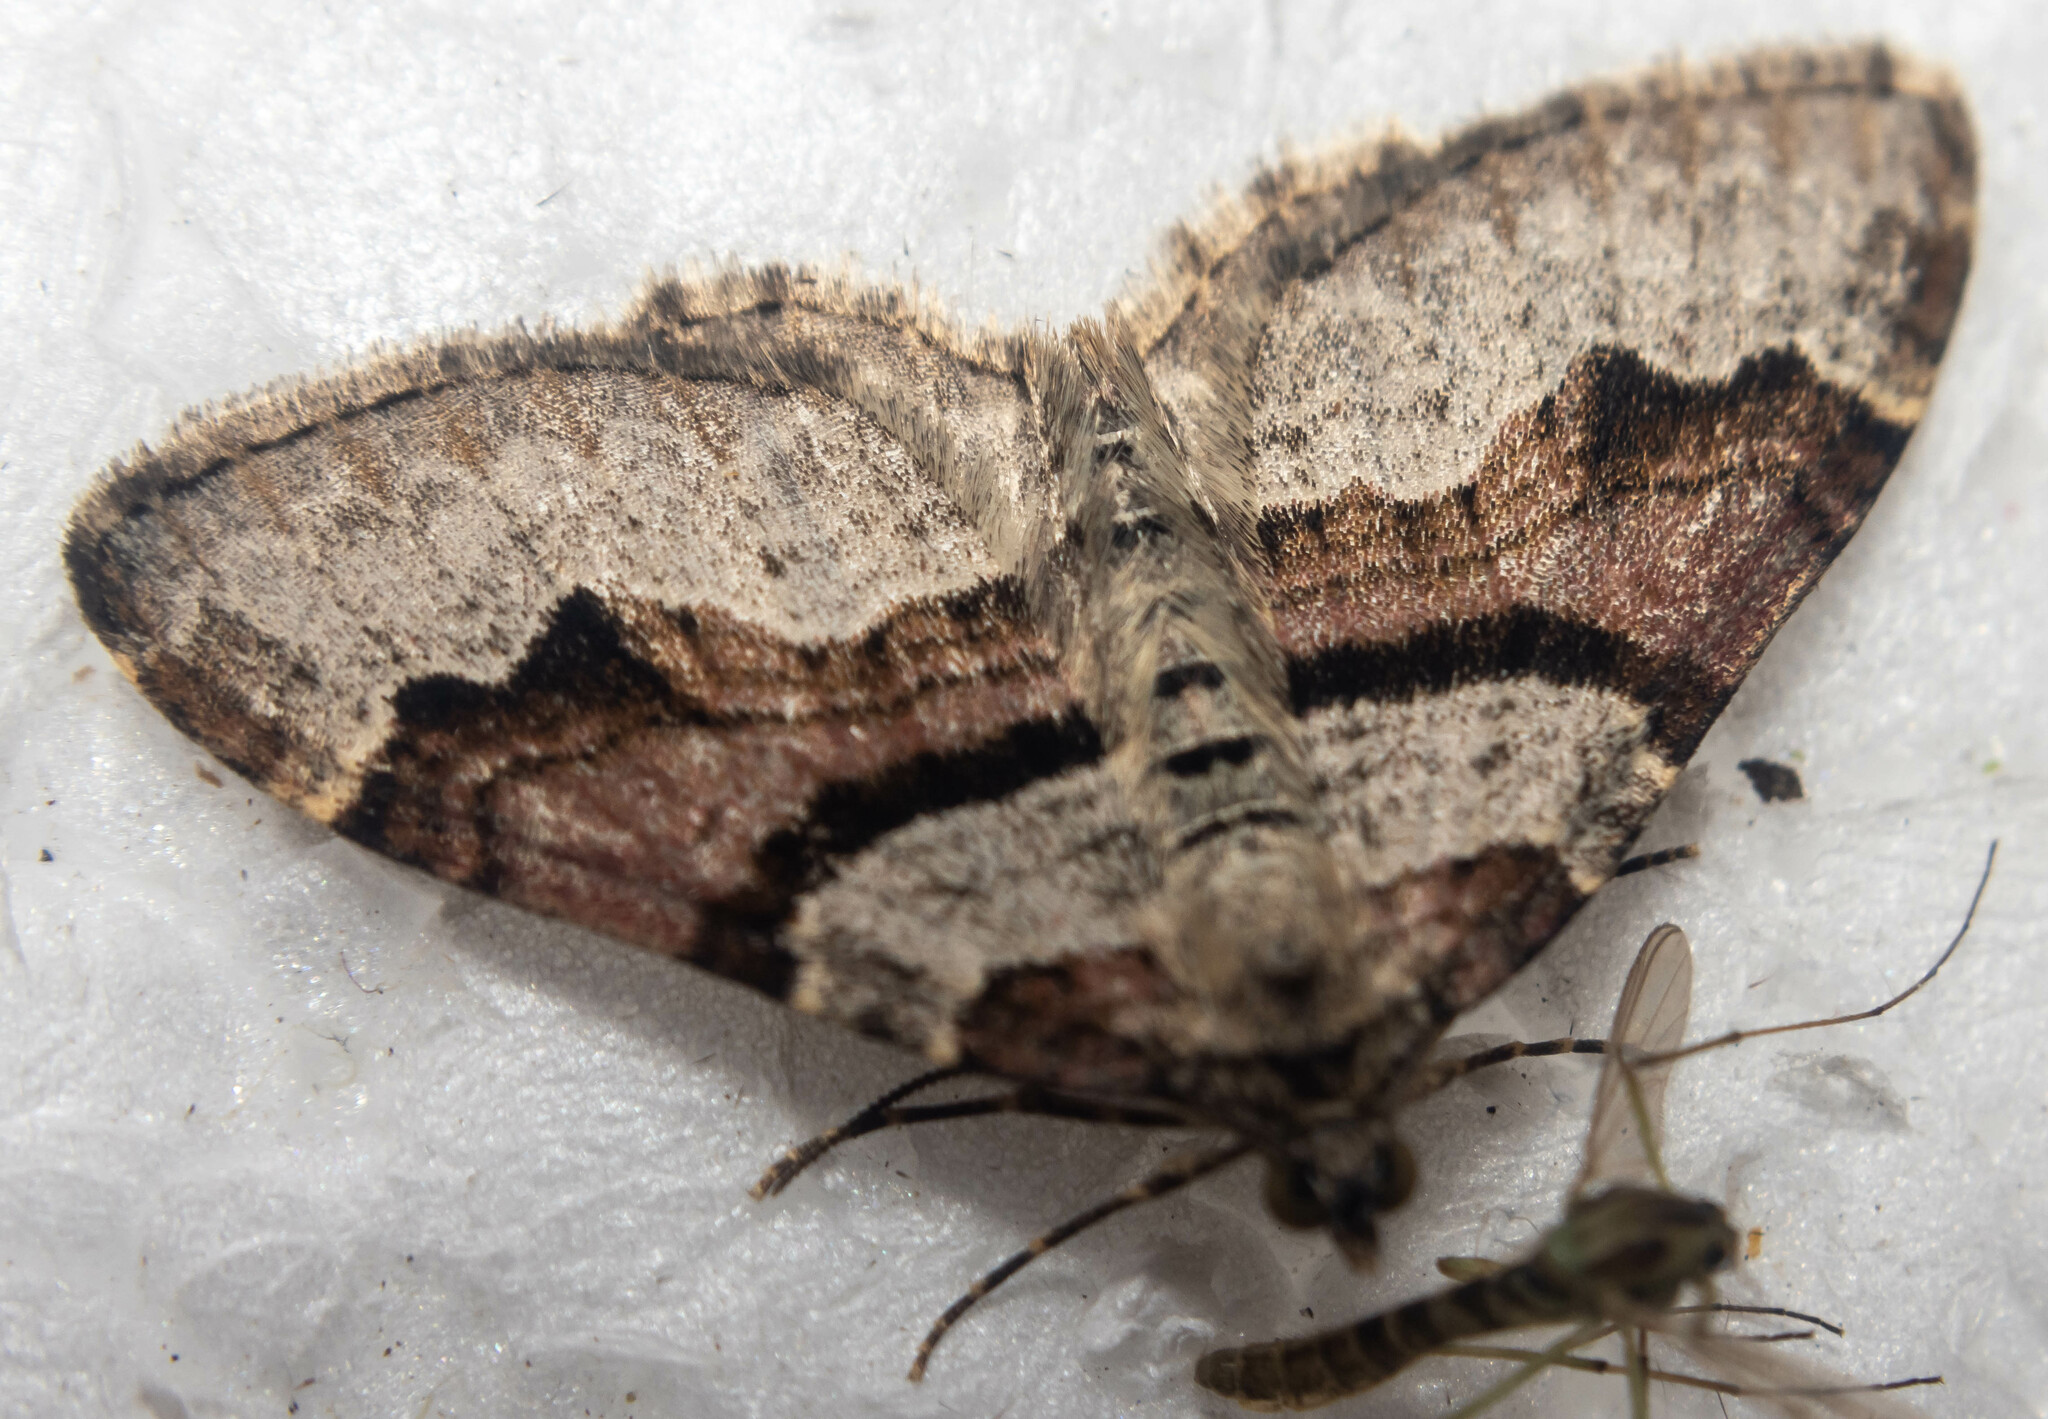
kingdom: Animalia
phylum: Arthropoda
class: Insecta
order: Lepidoptera
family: Geometridae
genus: Xanthorhoe
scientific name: Xanthorhoe designata
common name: Flame carpet
